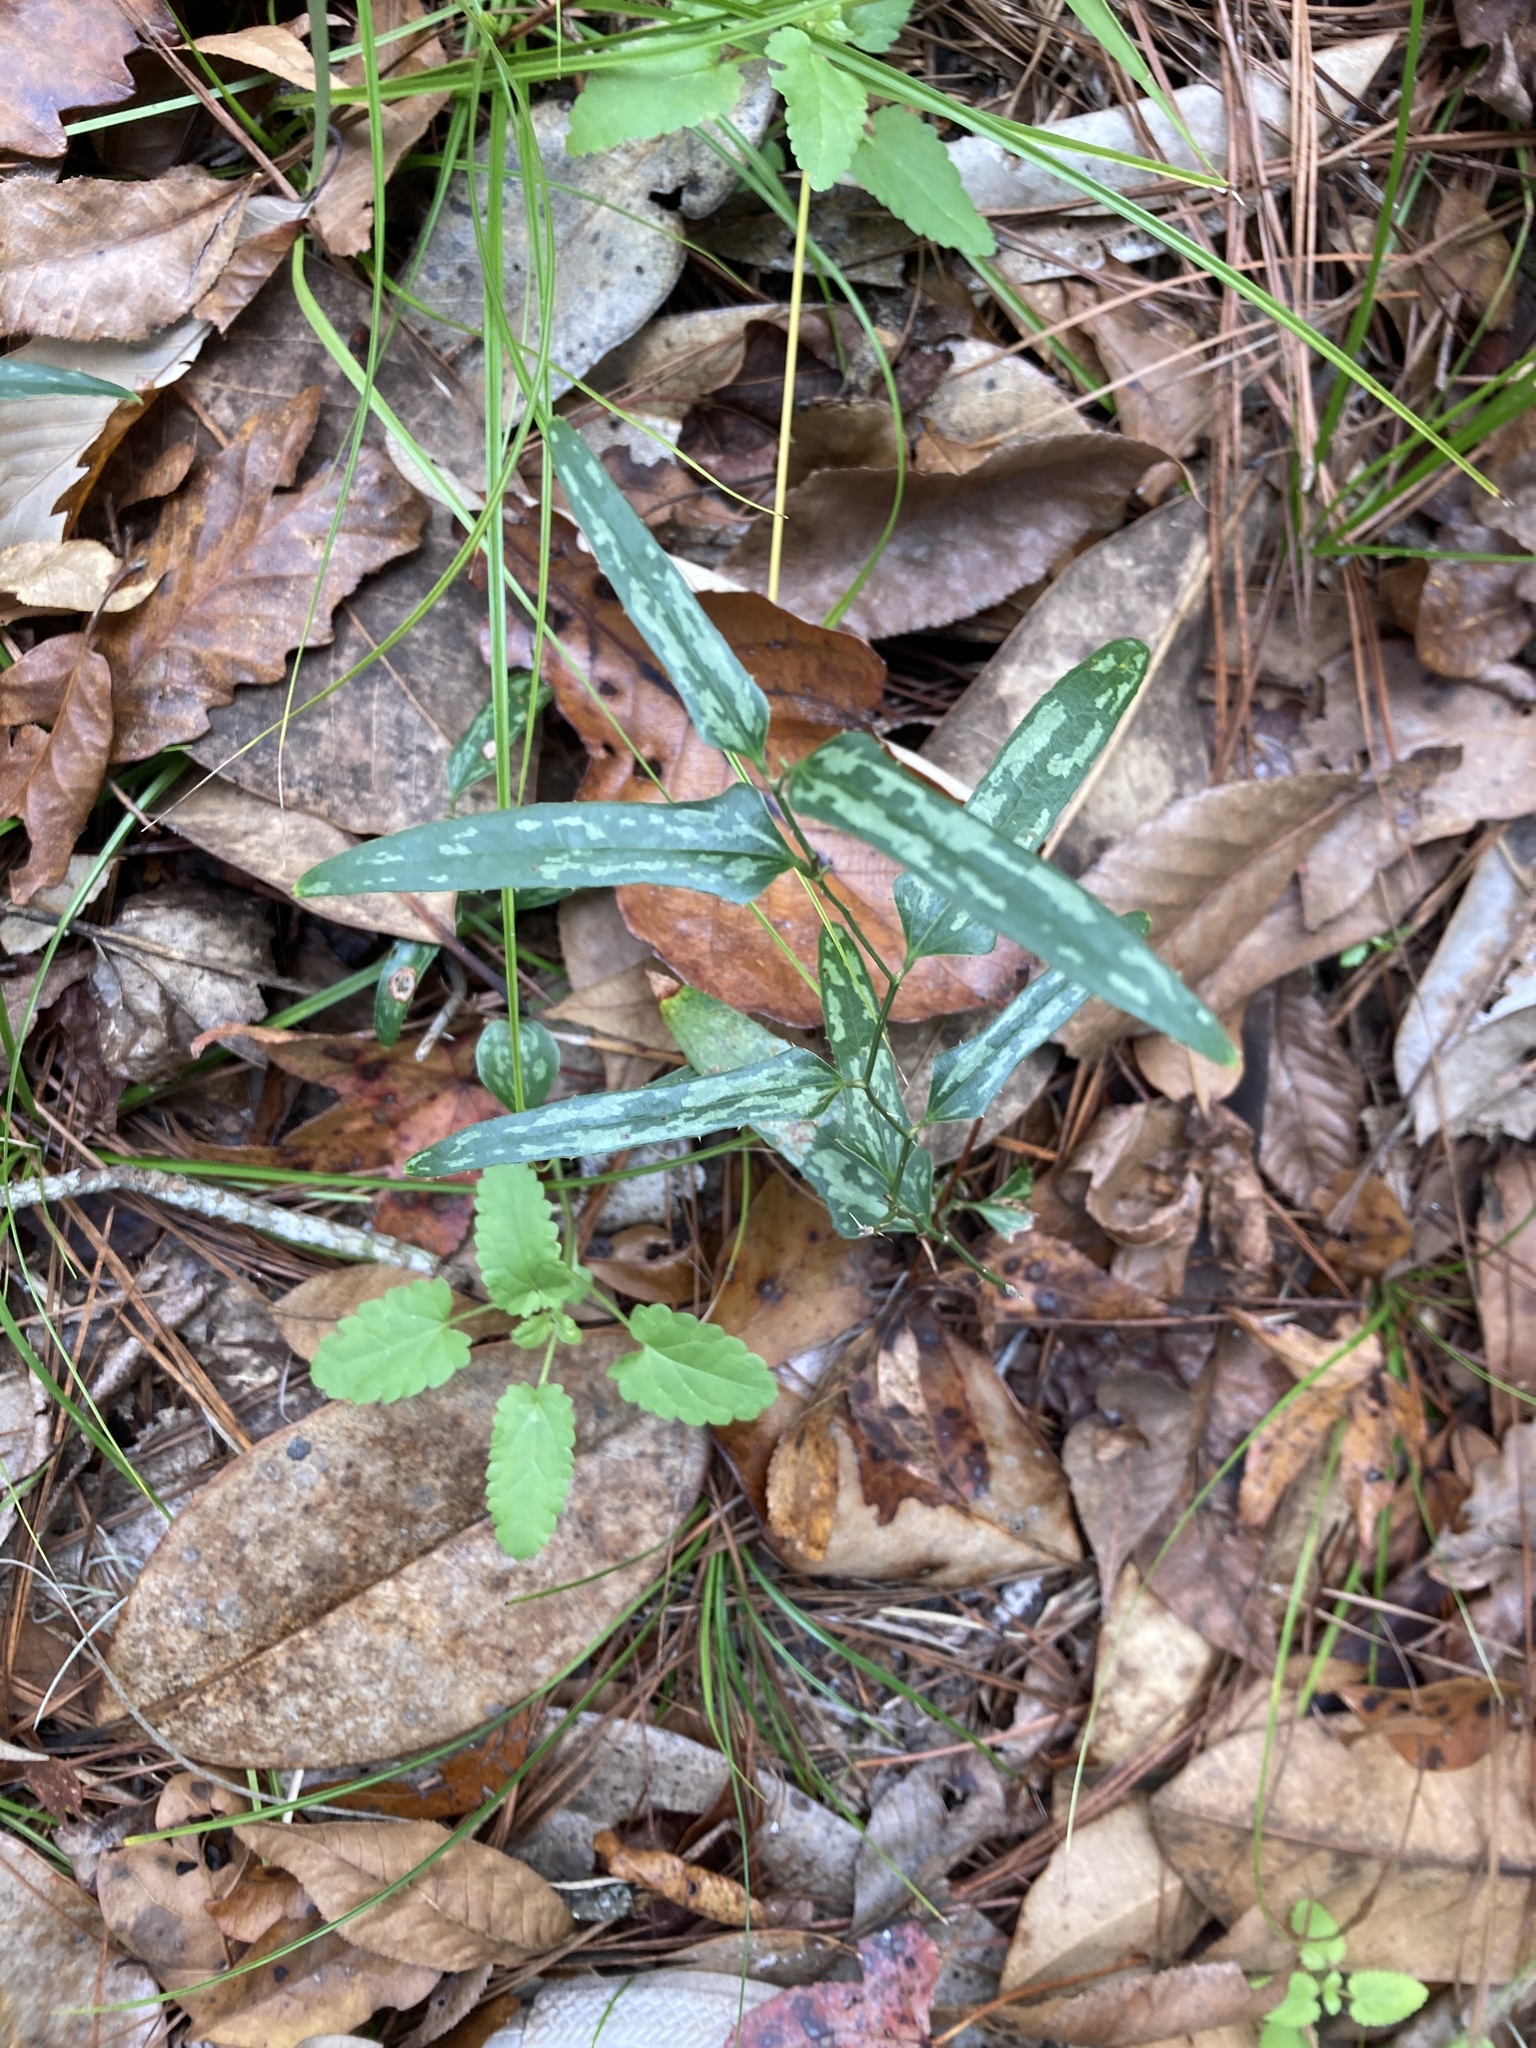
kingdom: Plantae
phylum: Tracheophyta
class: Liliopsida
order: Liliales
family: Smilacaceae
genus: Smilax
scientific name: Smilax bona-nox
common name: Catbrier
